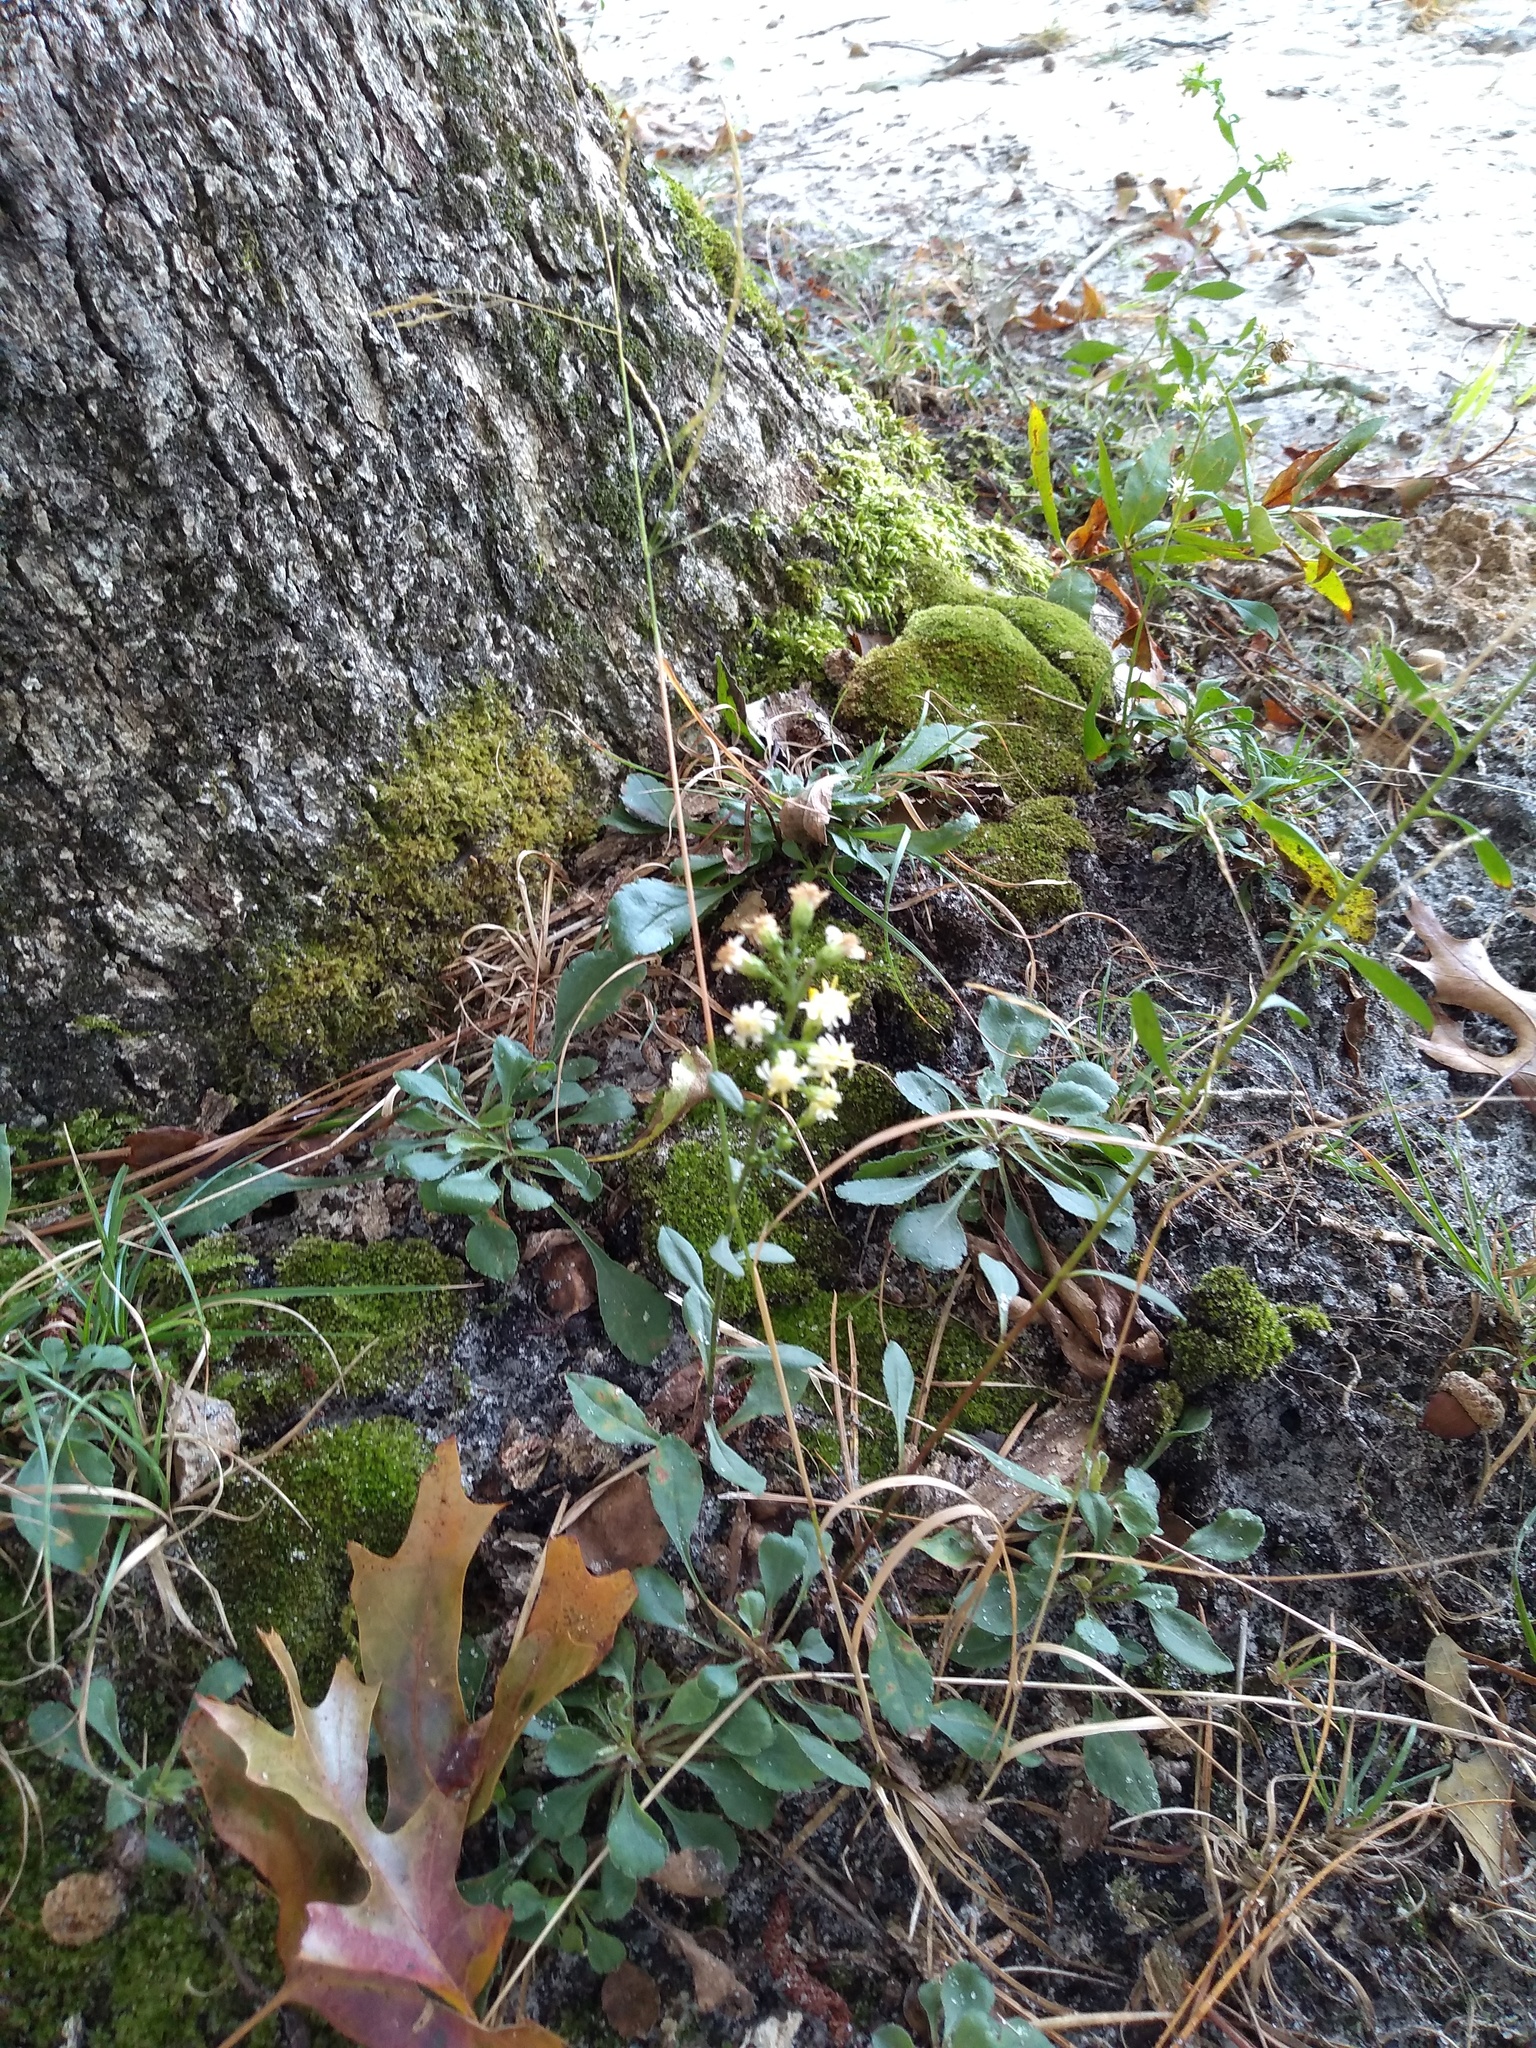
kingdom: Plantae
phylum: Tracheophyta
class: Magnoliopsida
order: Asterales
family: Asteraceae
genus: Solidago
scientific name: Solidago bicolor
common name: Silverrod
